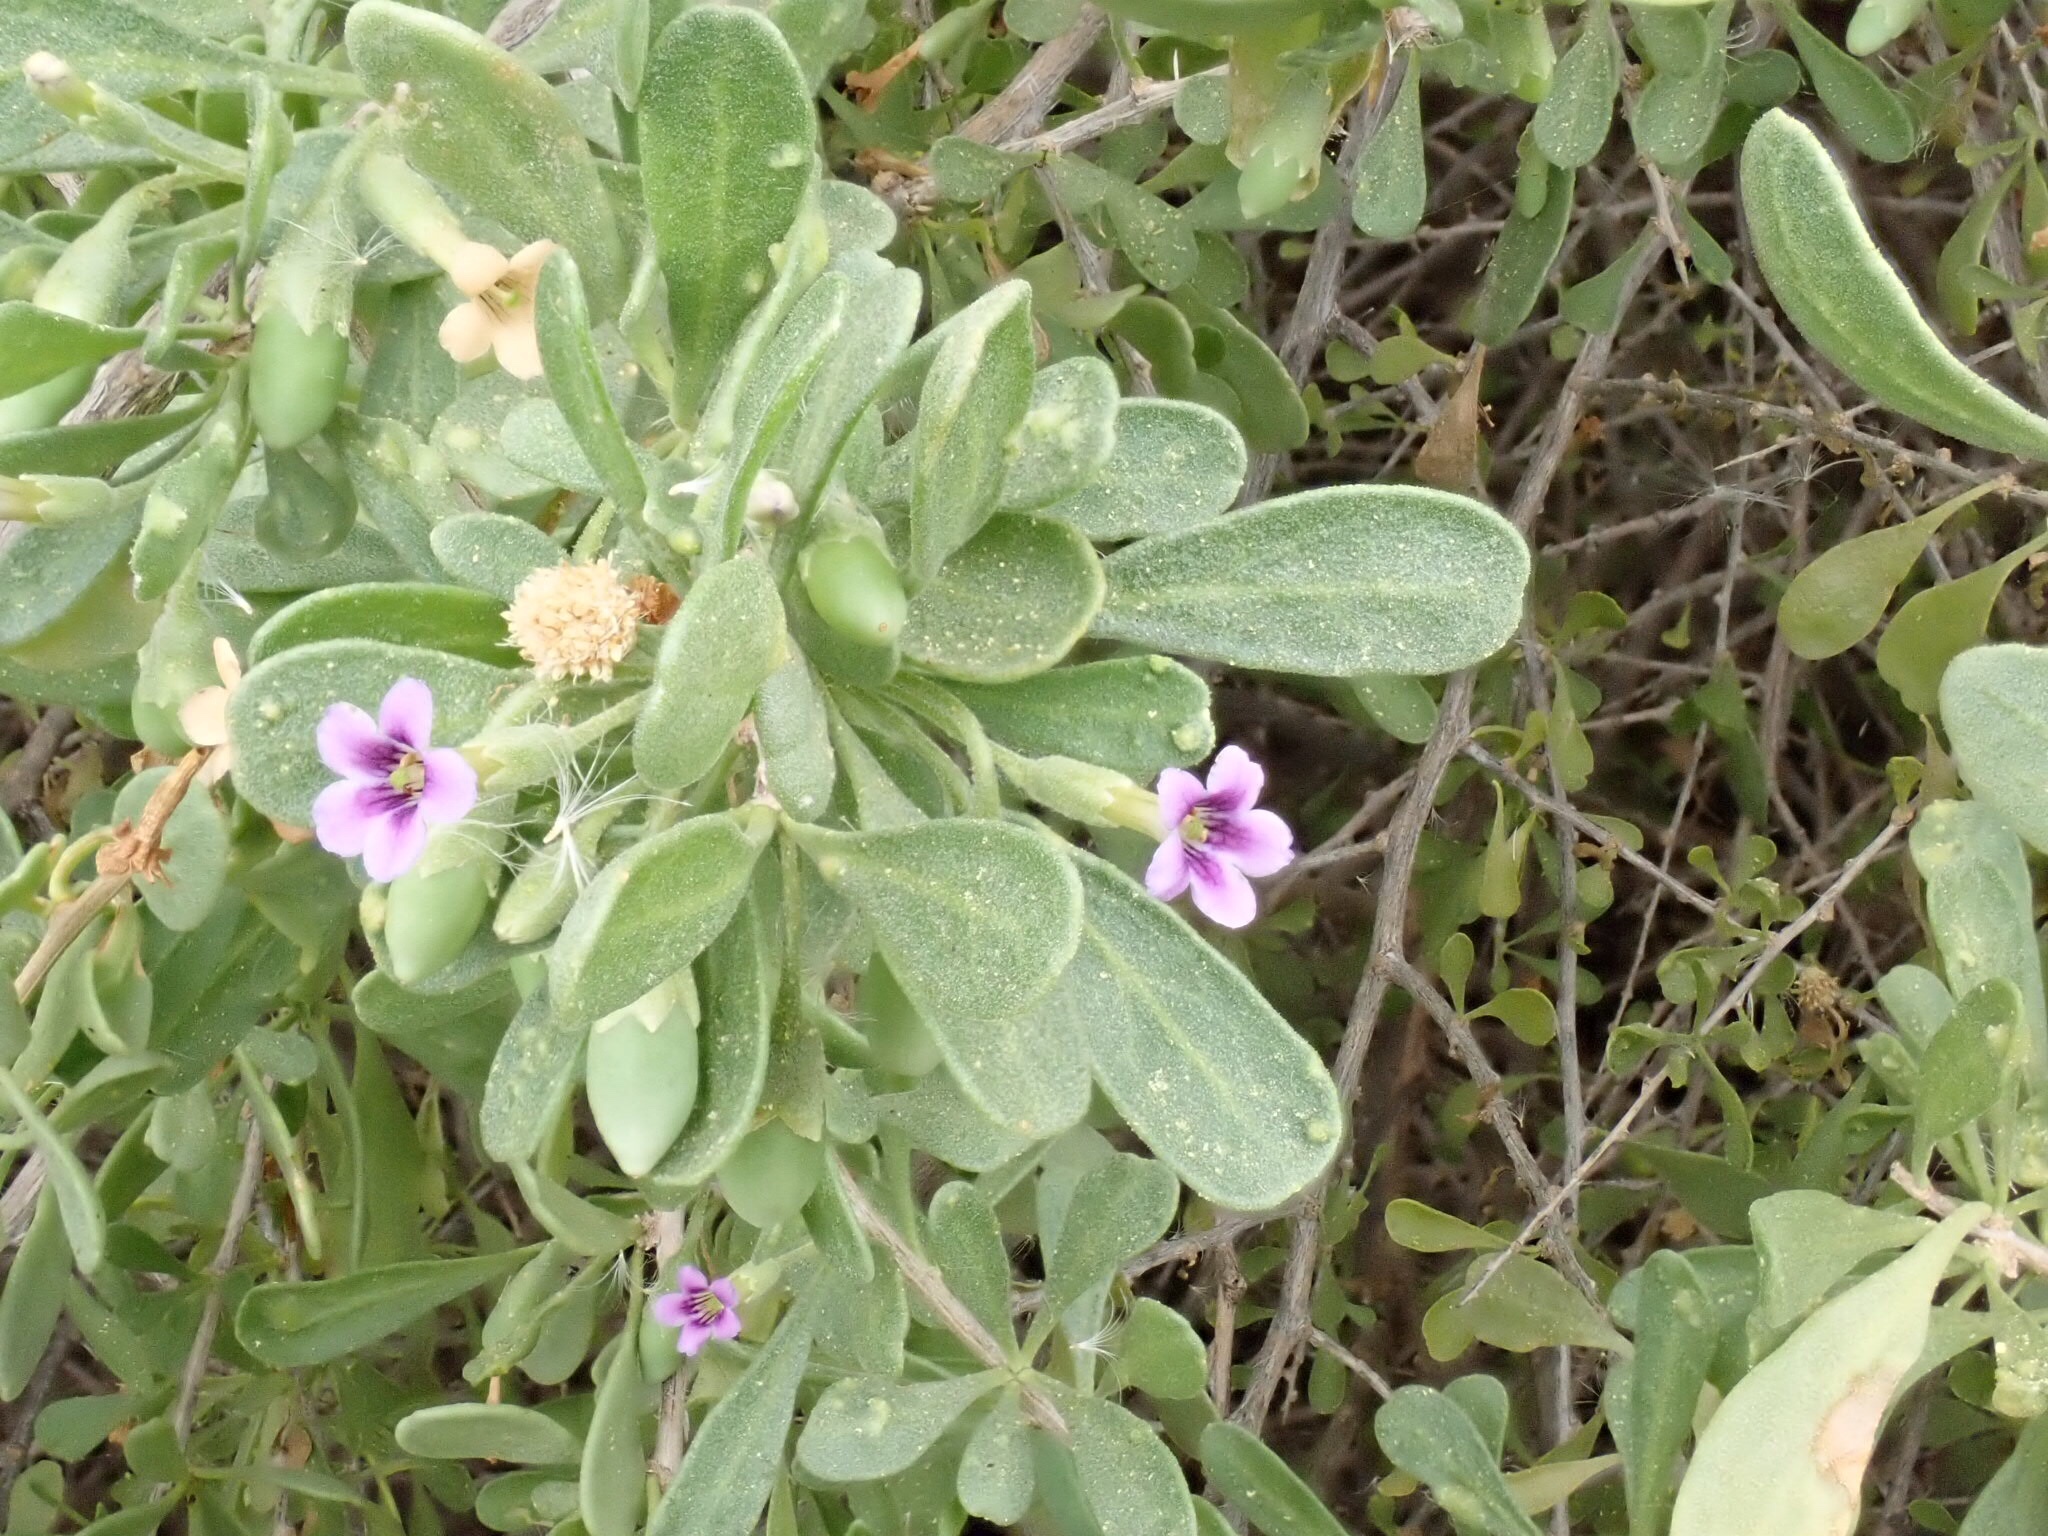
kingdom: Plantae
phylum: Tracheophyta
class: Magnoliopsida
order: Solanales
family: Solanaceae
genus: Lycium
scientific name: Lycium fremontii
